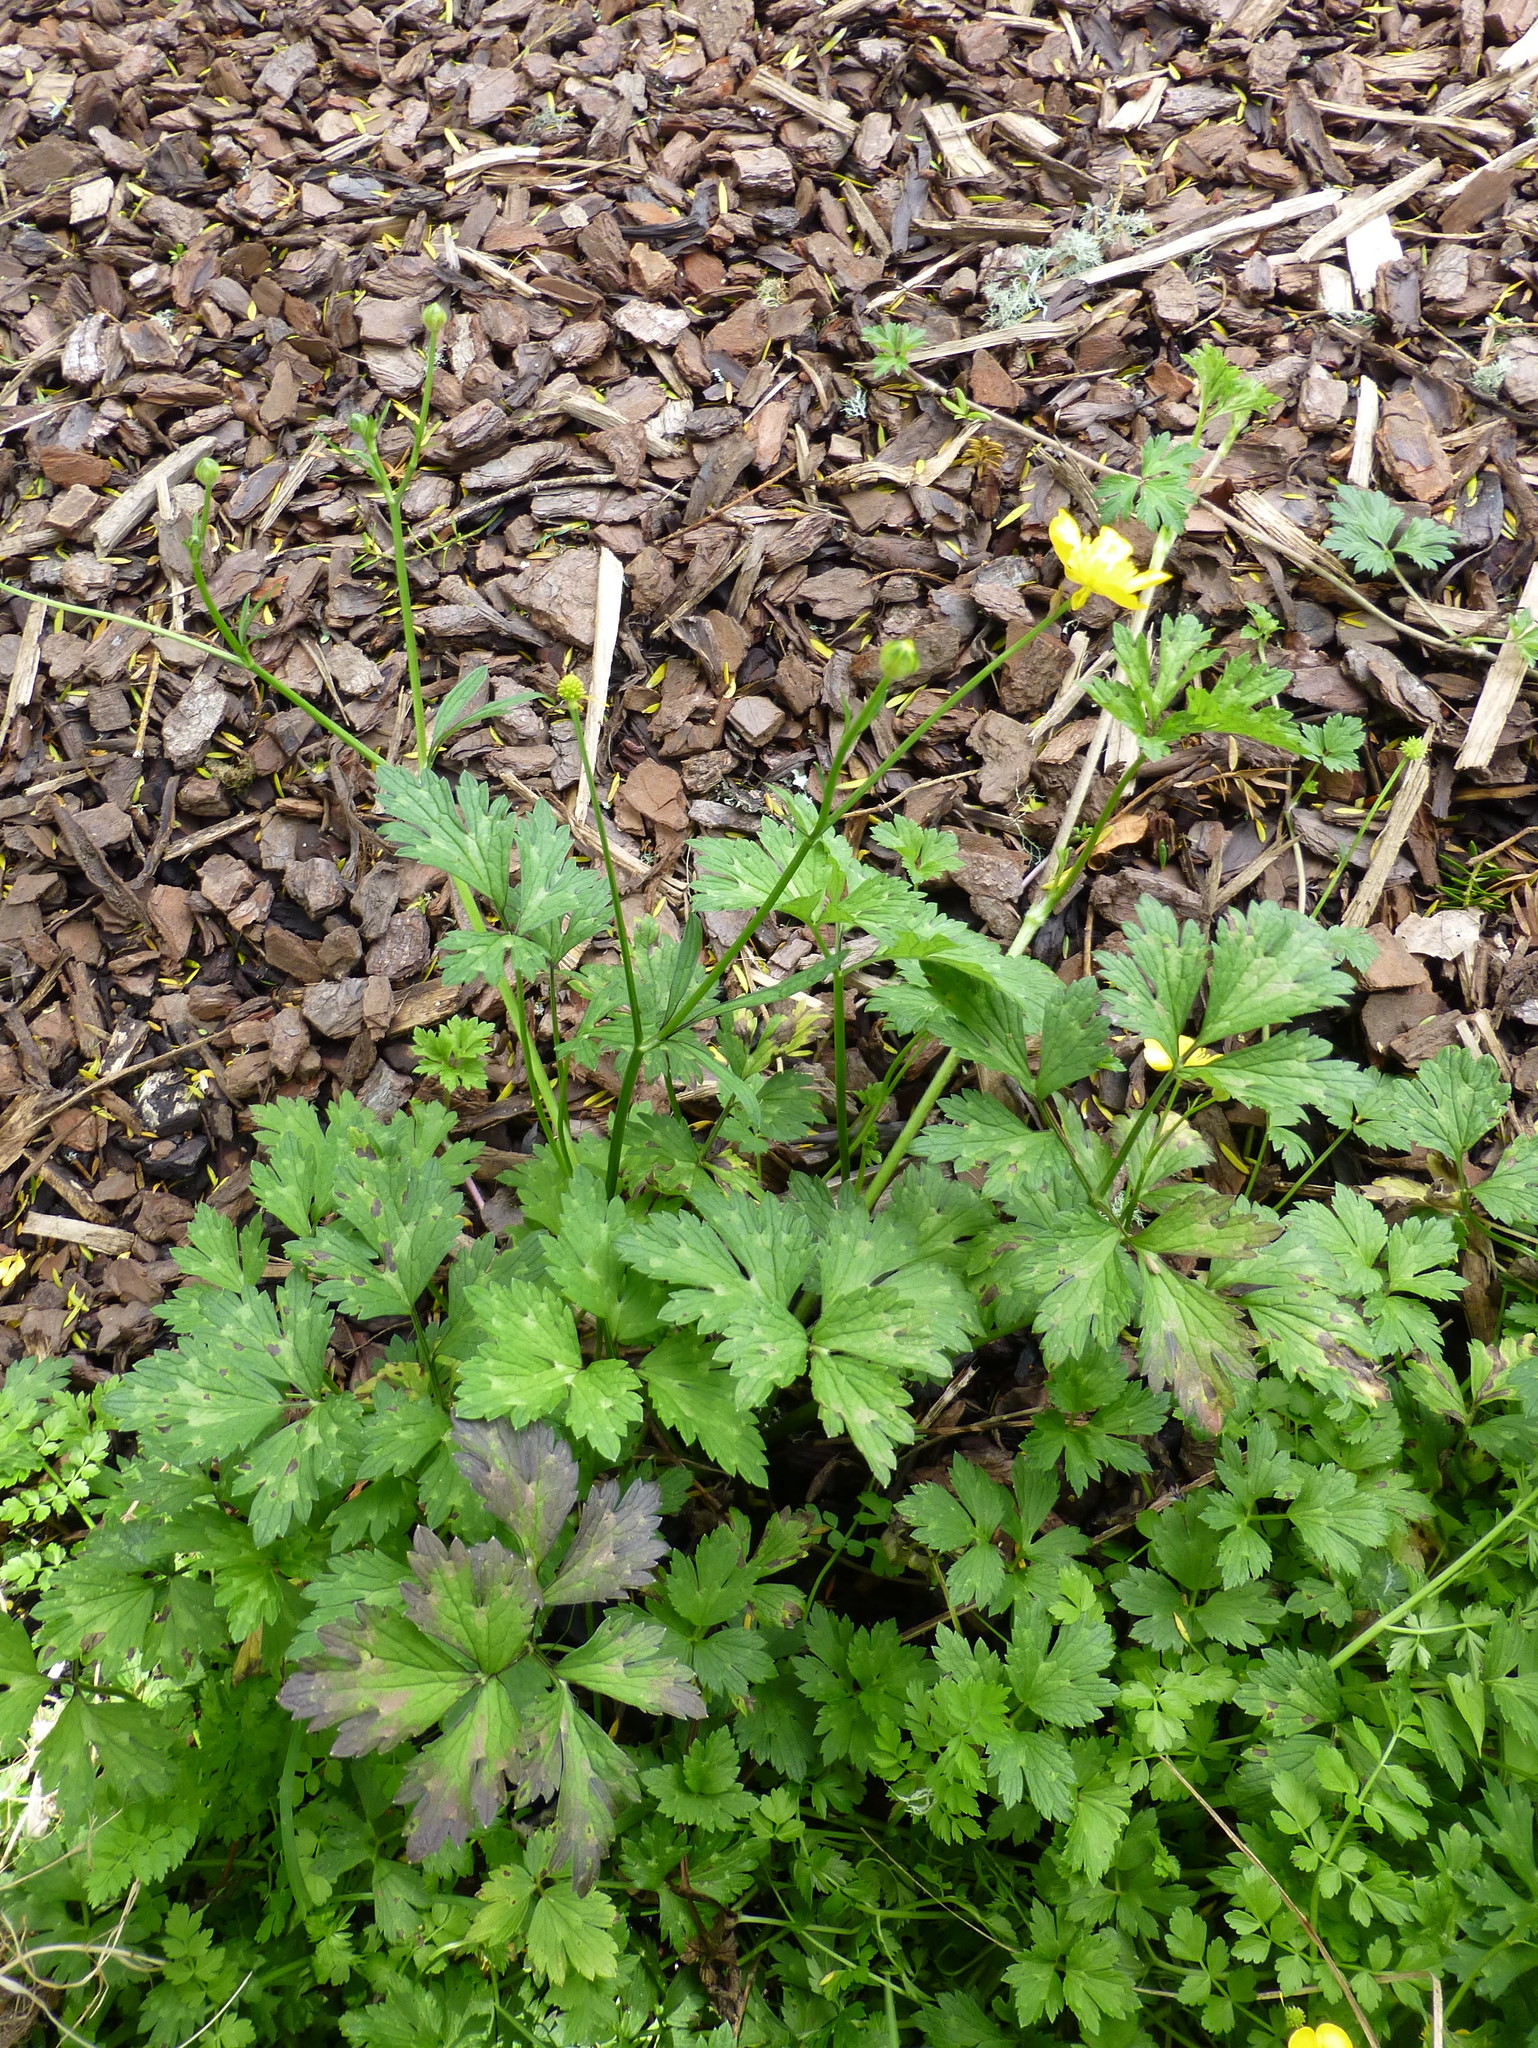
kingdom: Plantae
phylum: Tracheophyta
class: Magnoliopsida
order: Ranunculales
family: Ranunculaceae
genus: Ranunculus
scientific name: Ranunculus repens
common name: Creeping buttercup
